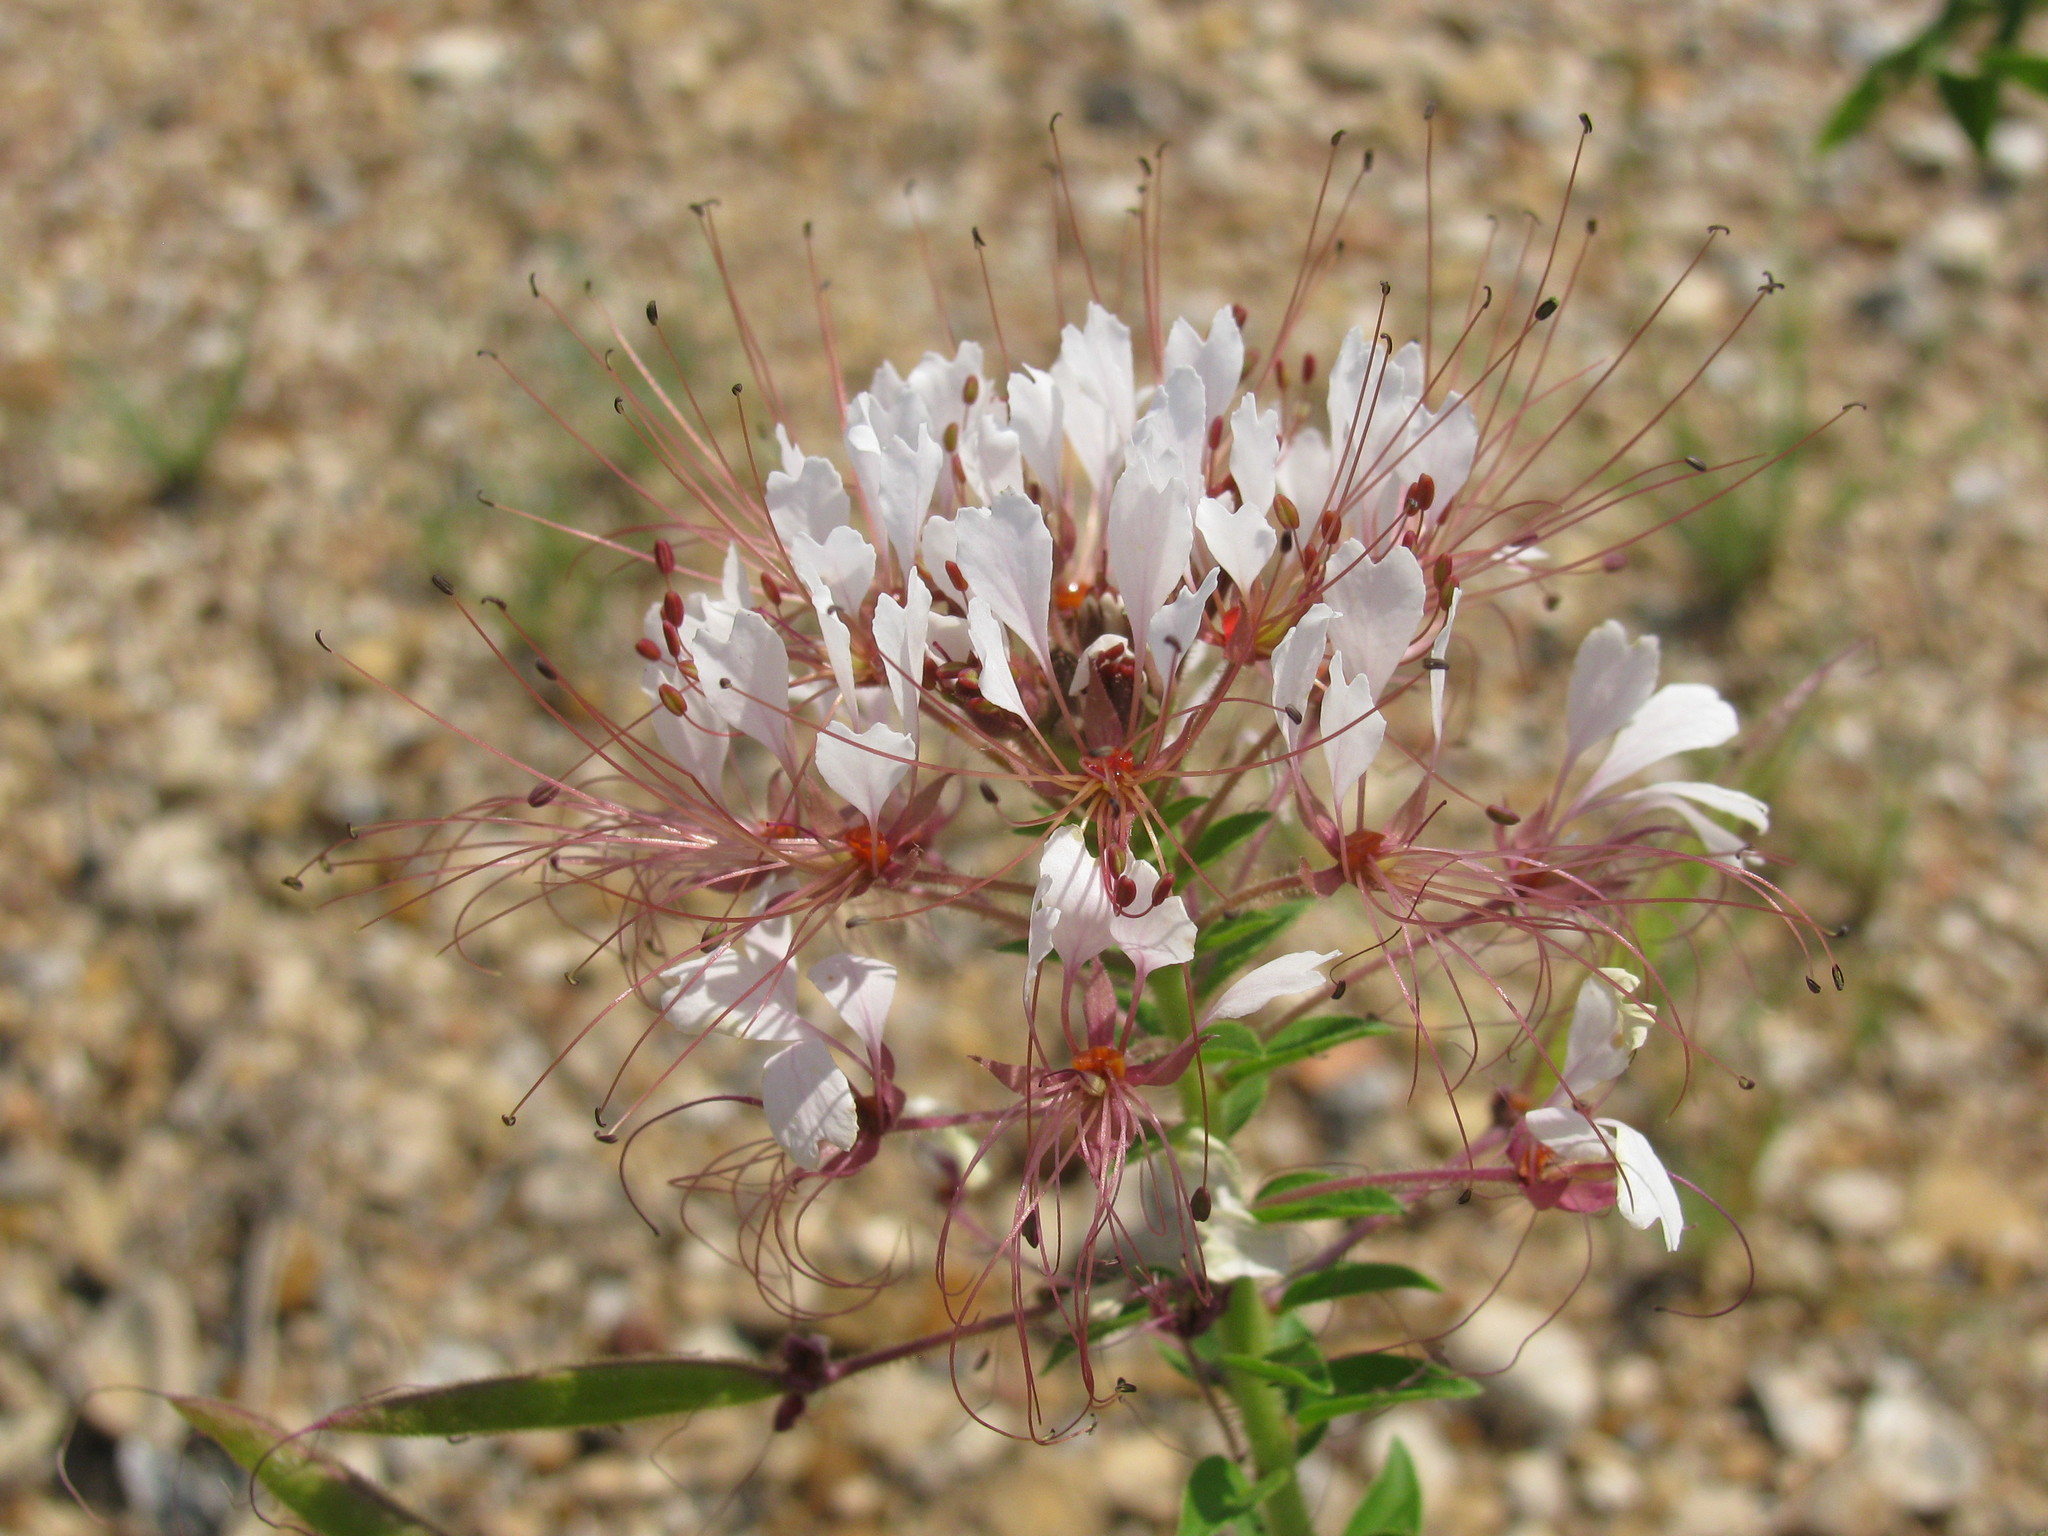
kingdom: Plantae
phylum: Tracheophyta
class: Magnoliopsida
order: Brassicales
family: Cleomaceae
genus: Polanisia
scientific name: Polanisia dodecandra
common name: Clammyweed
